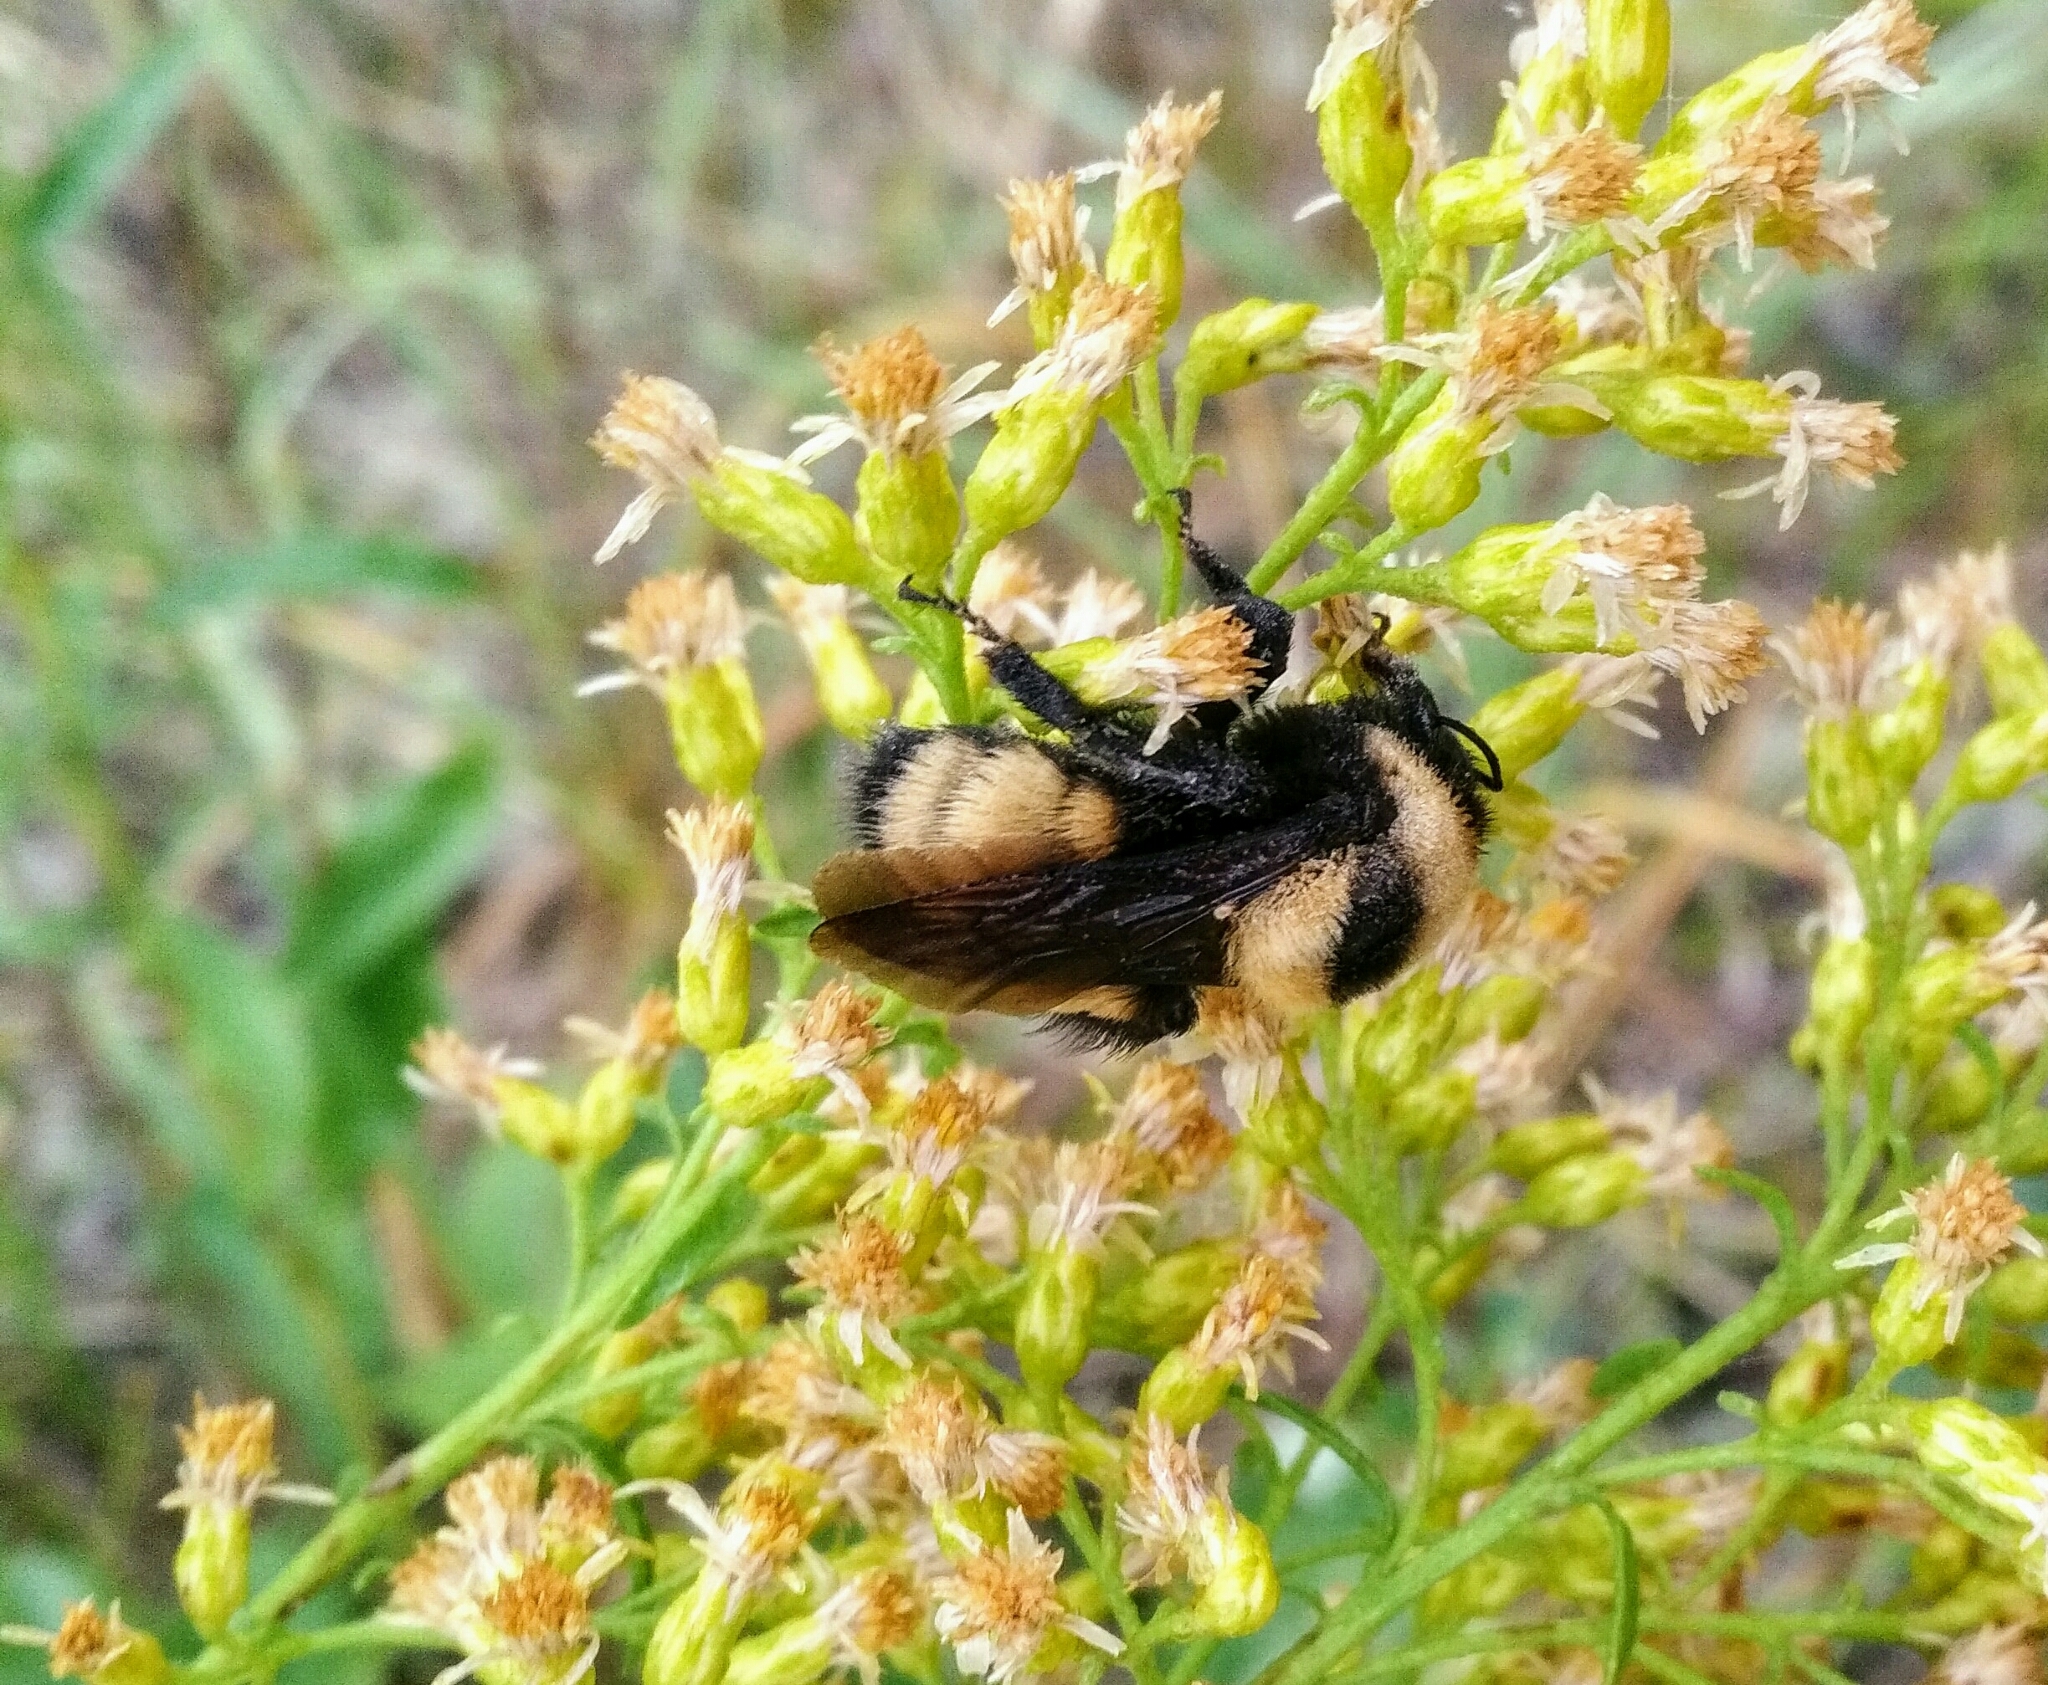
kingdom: Animalia
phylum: Arthropoda
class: Insecta
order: Hymenoptera
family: Apidae
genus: Bombus
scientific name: Bombus nevadensis
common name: Nevada bumble bee
